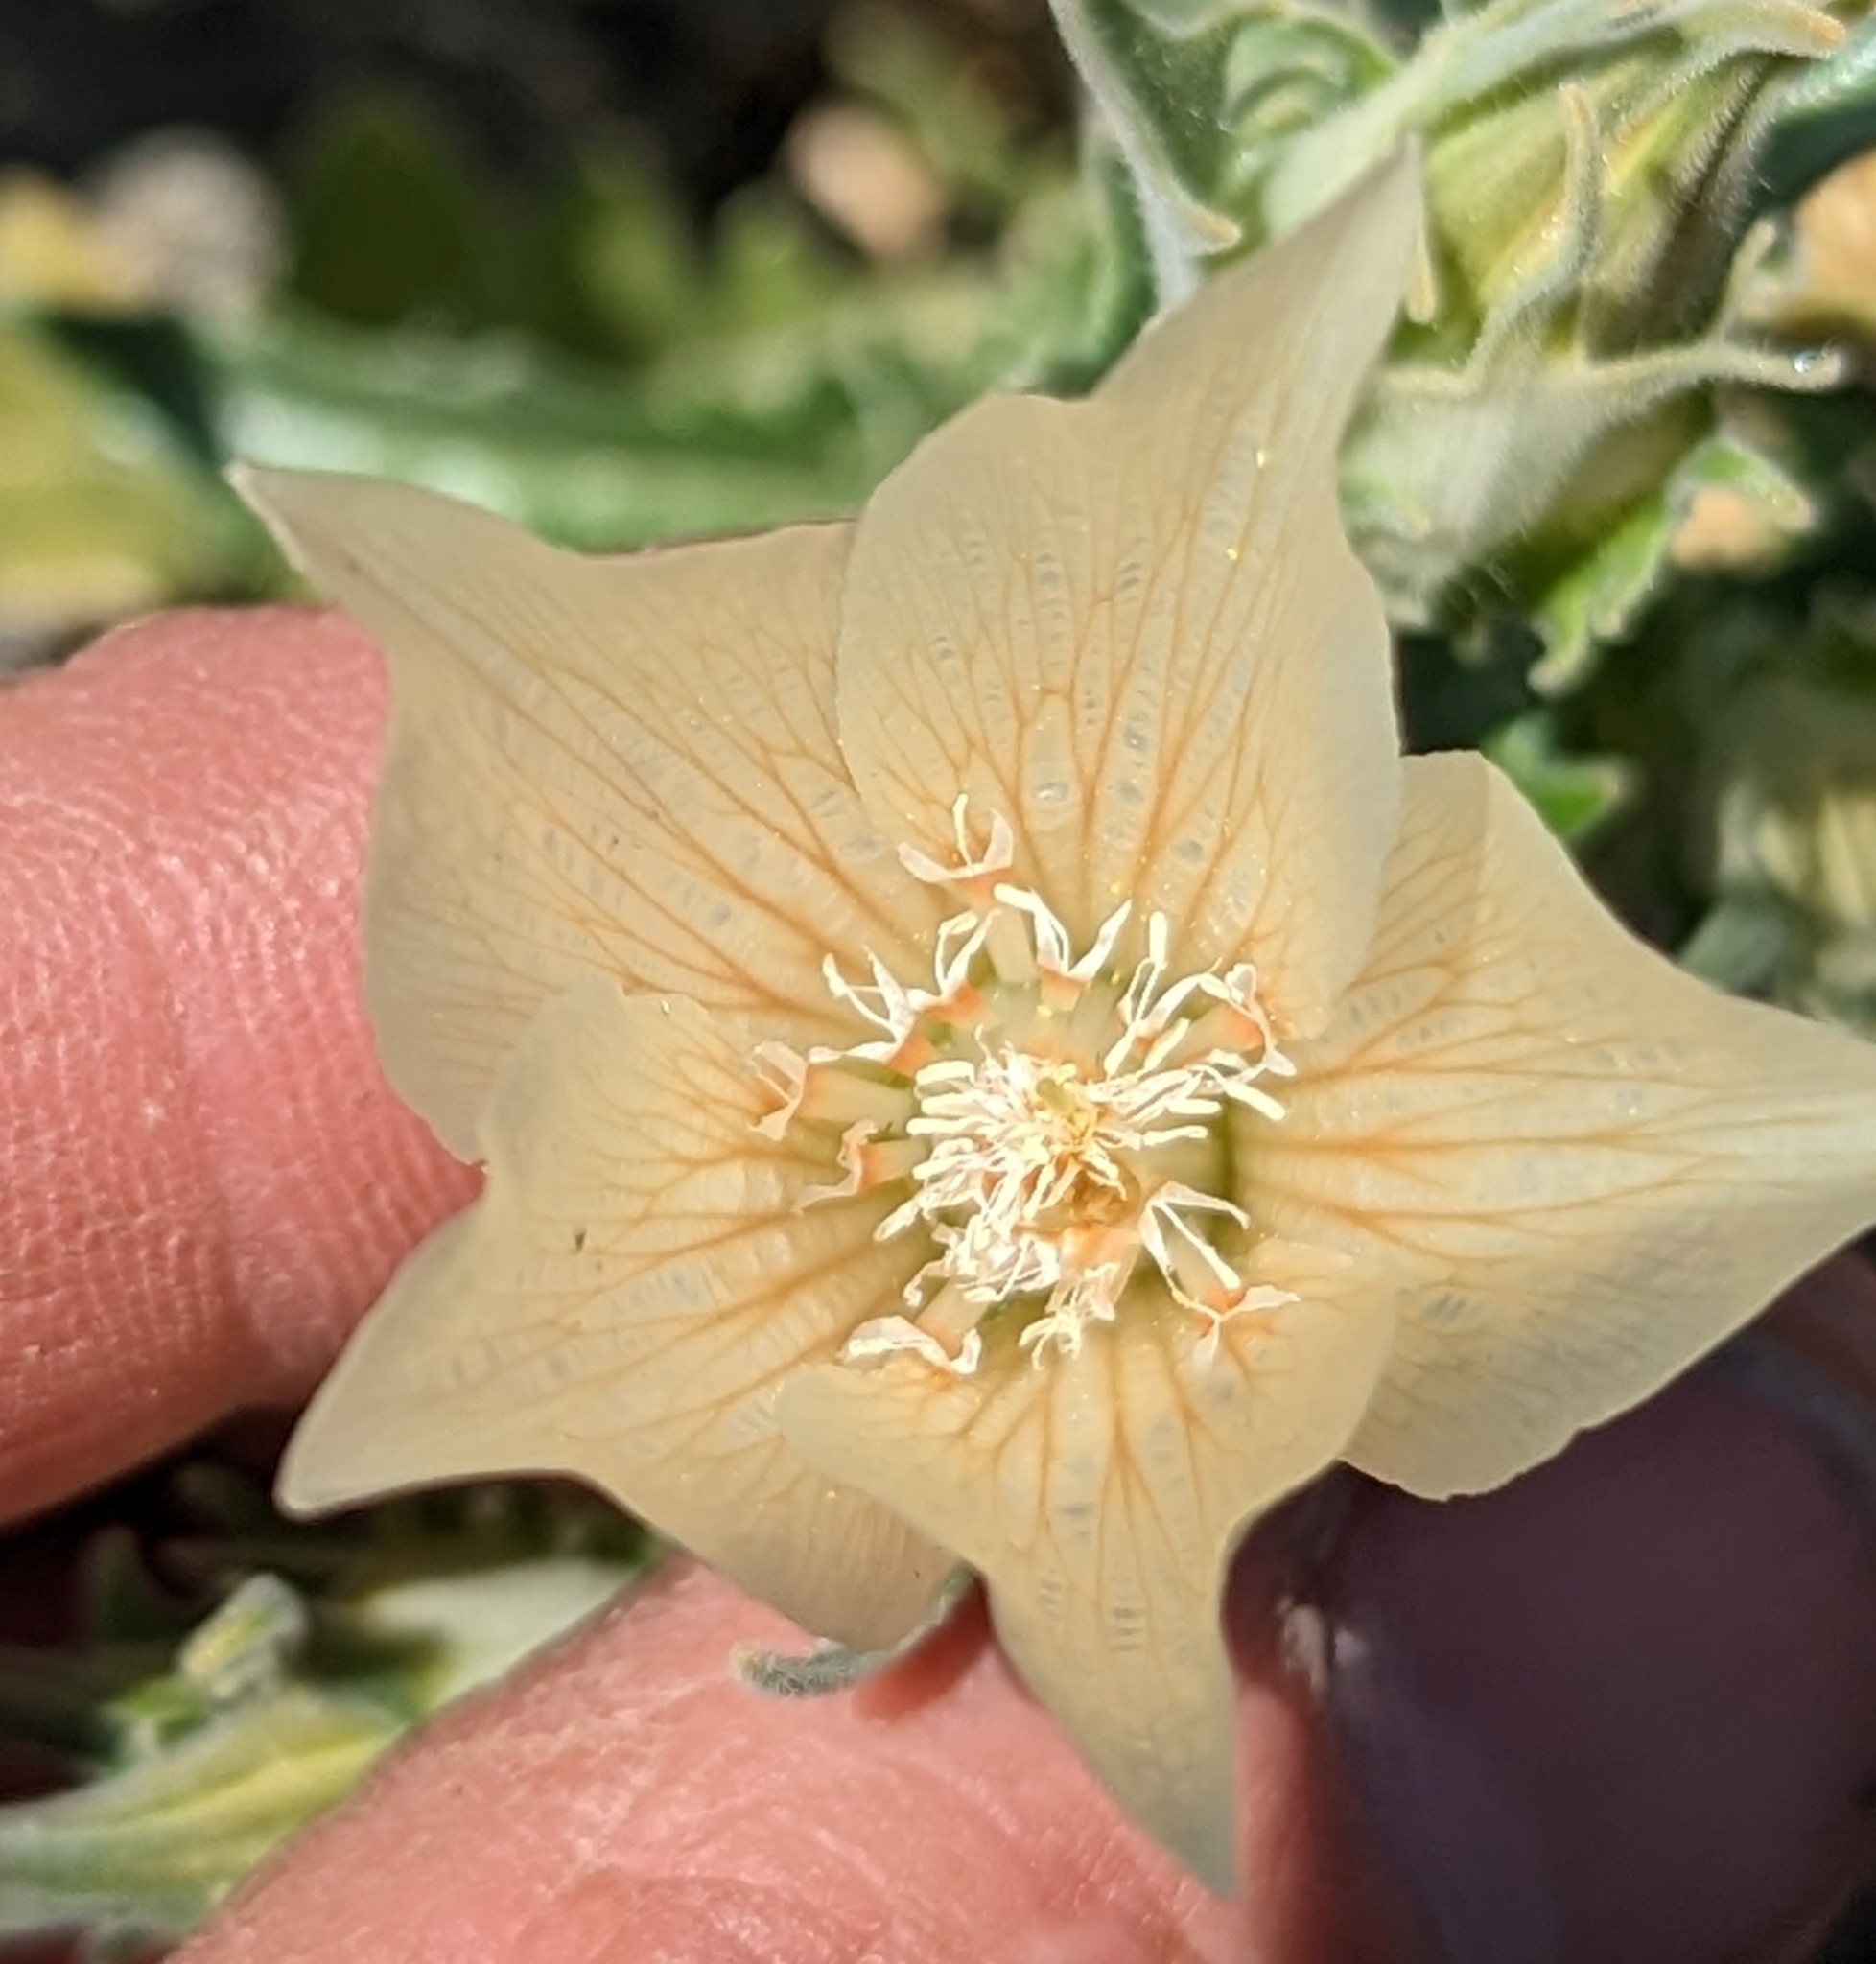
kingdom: Plantae
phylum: Tracheophyta
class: Magnoliopsida
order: Cornales
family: Loasaceae
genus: Mentzelia
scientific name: Mentzelia involucrata
